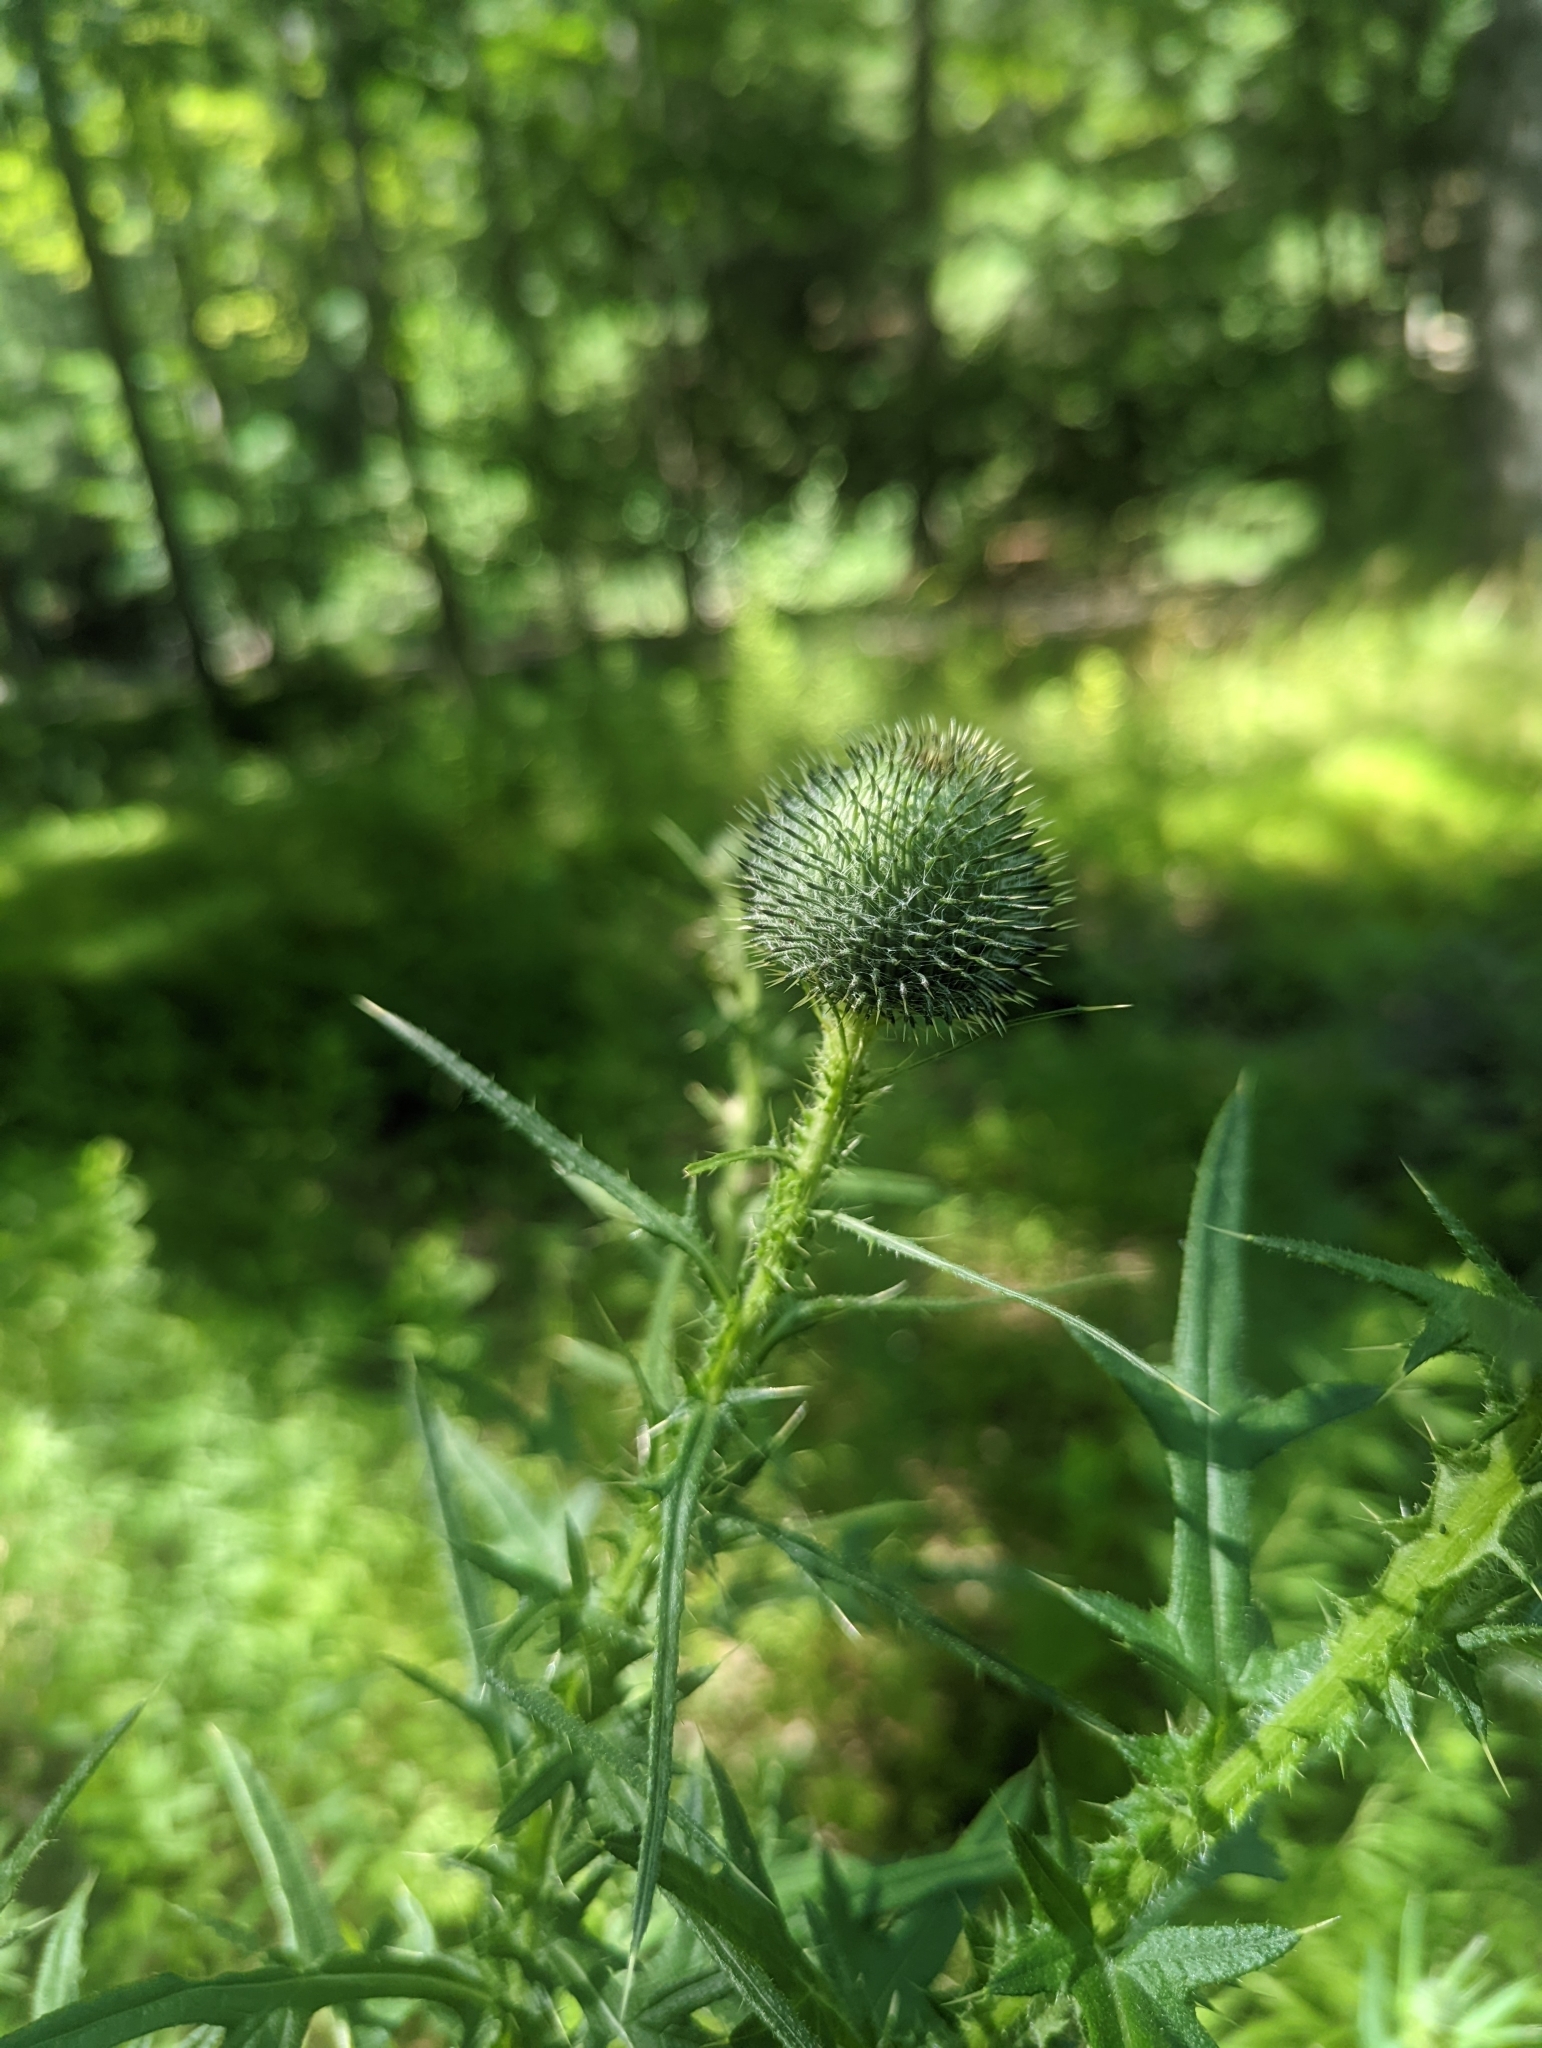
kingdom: Plantae
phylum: Tracheophyta
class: Magnoliopsida
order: Asterales
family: Asteraceae
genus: Cirsium
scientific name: Cirsium vulgare
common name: Bull thistle
